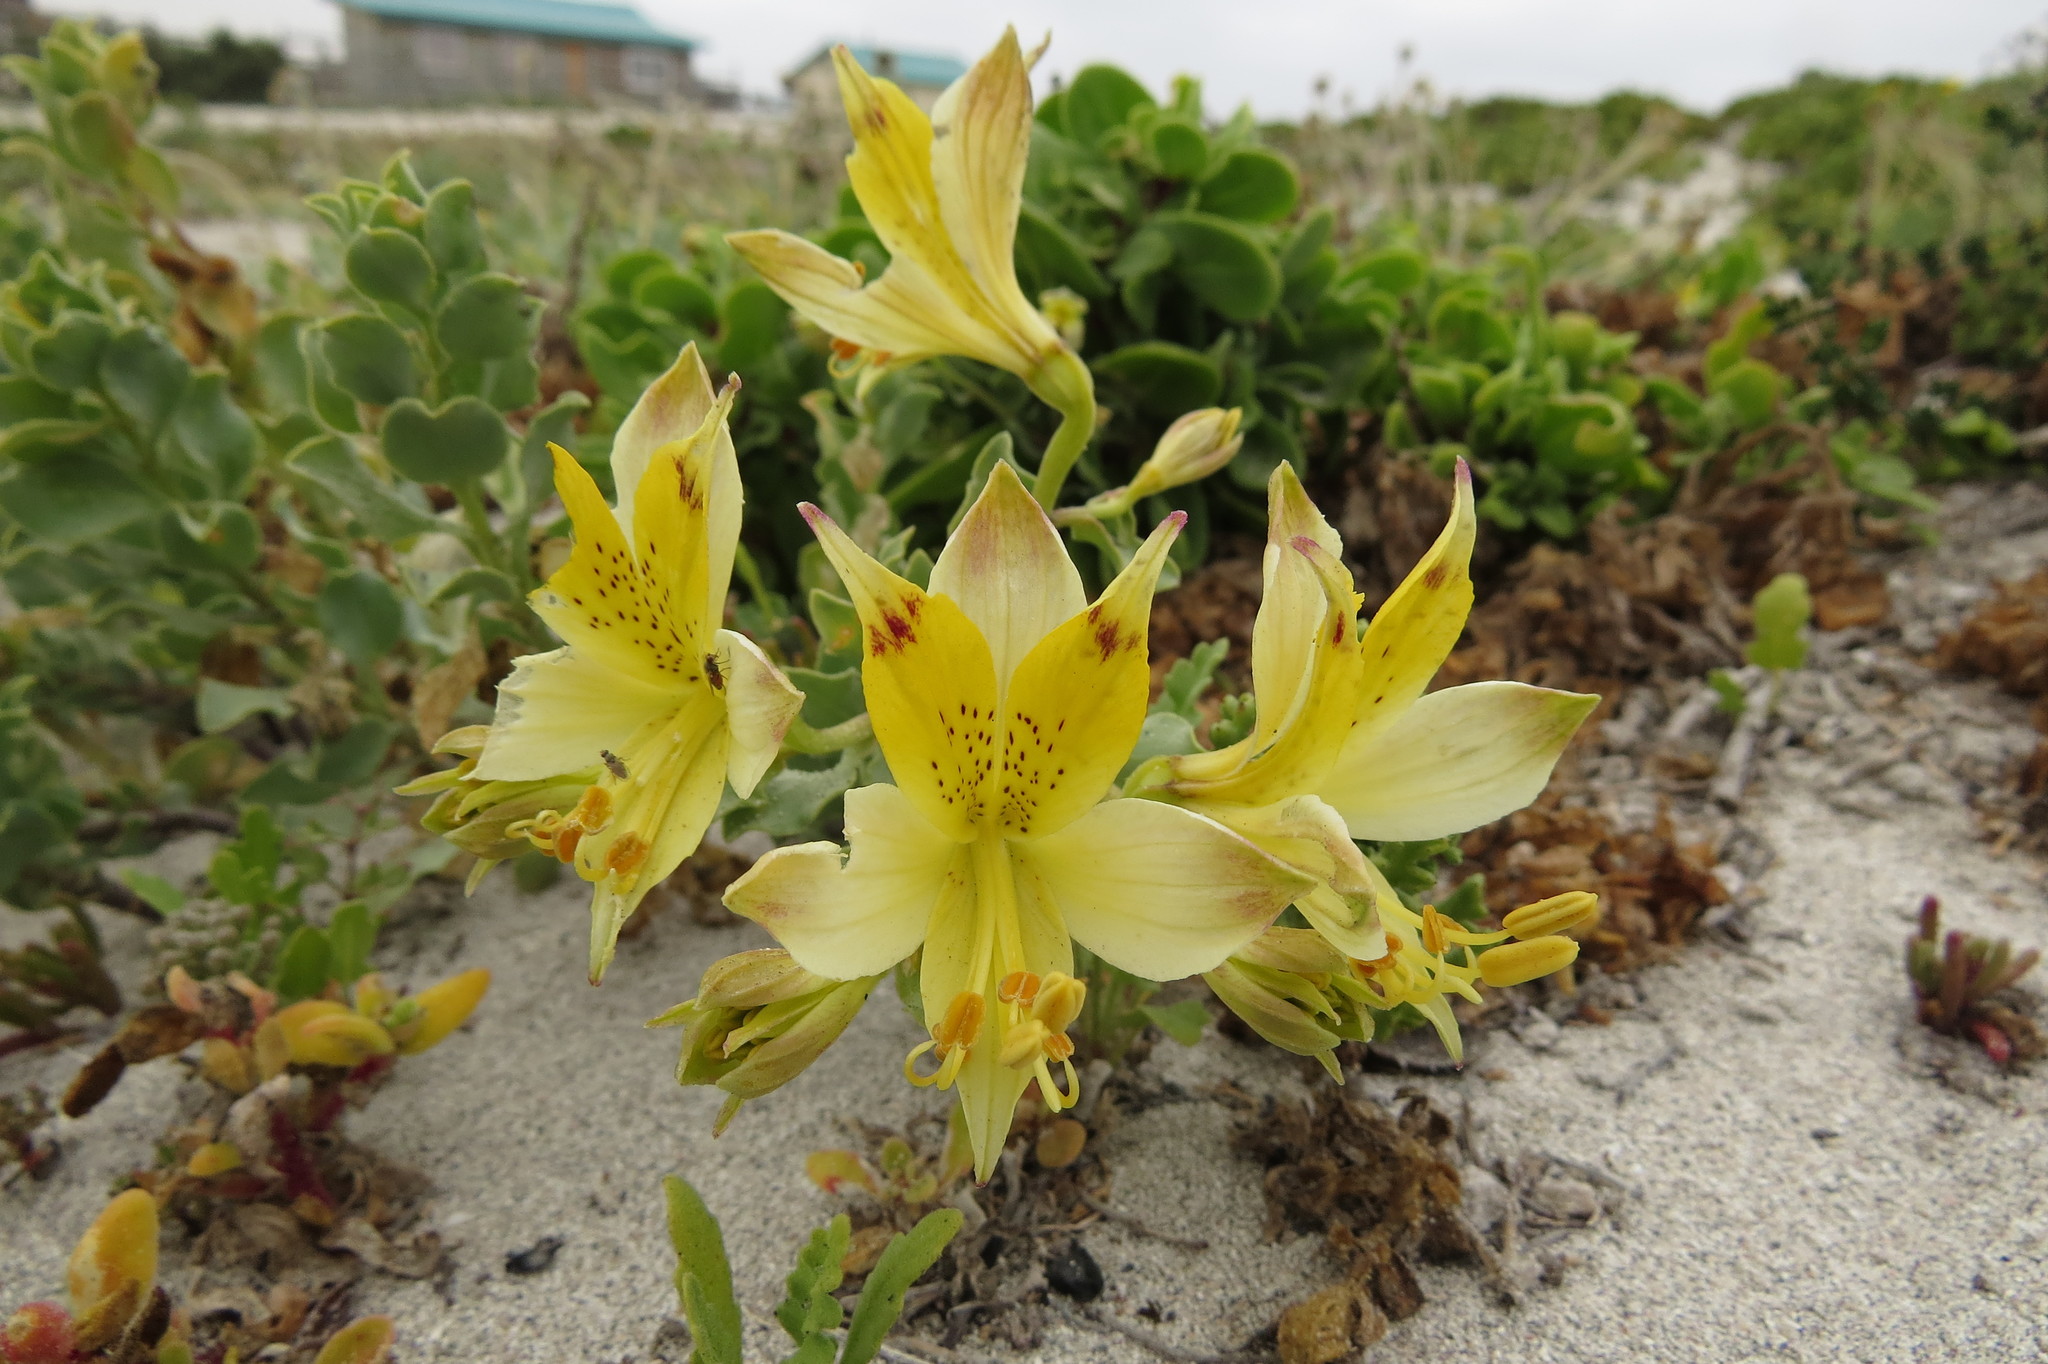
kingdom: Plantae
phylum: Tracheophyta
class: Liliopsida
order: Liliales
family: Alstroemeriaceae
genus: Alstroemeria
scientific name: Alstroemeria werdermannii
